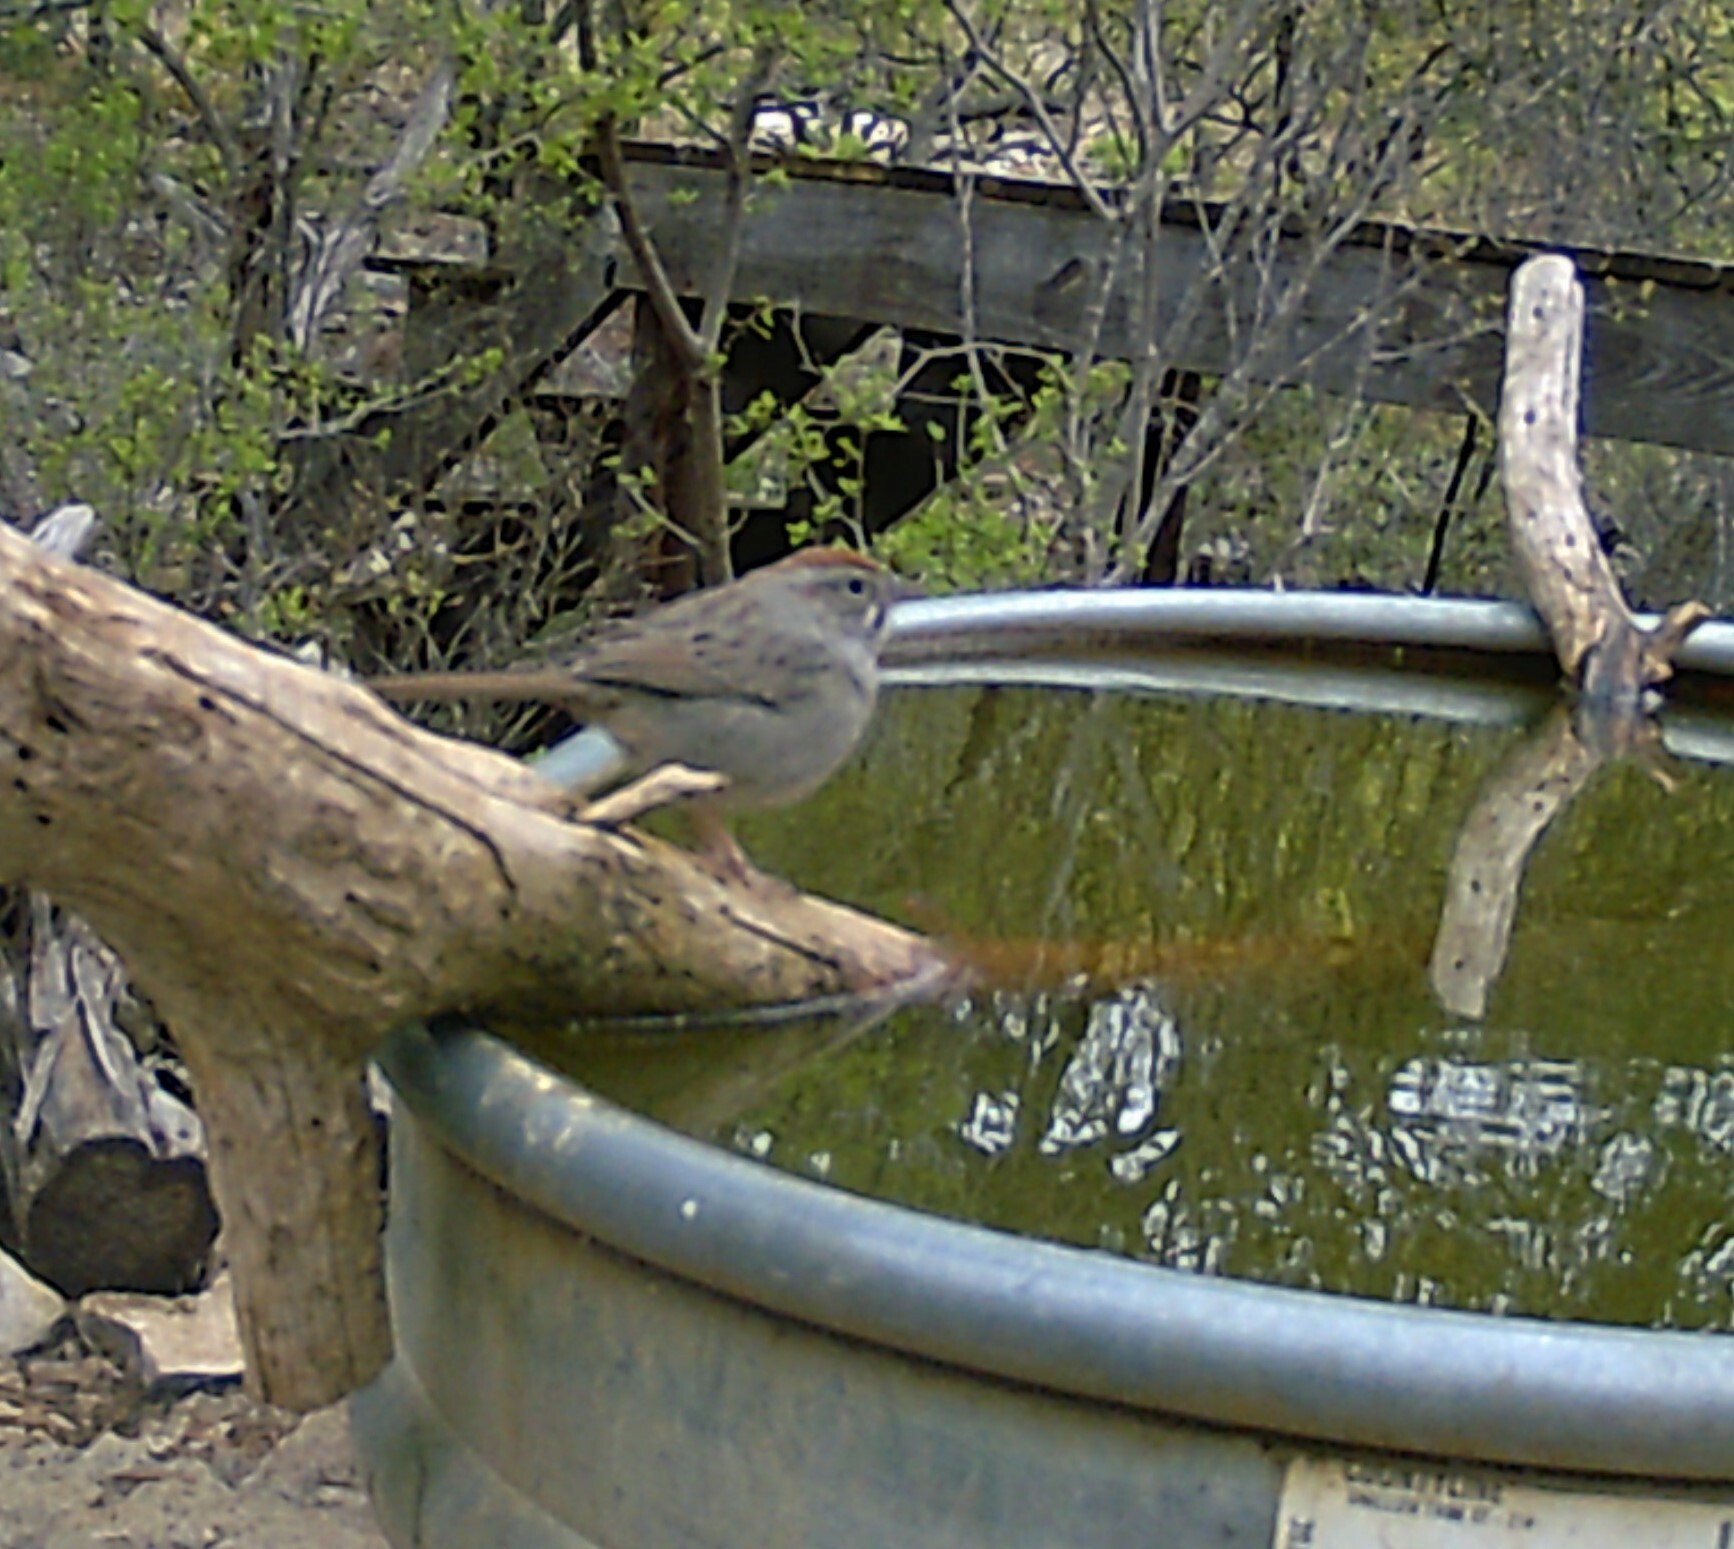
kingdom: Animalia
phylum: Chordata
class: Aves
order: Passeriformes
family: Passerellidae
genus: Aimophila
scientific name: Aimophila ruficeps
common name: Rufous-crowned sparrow
